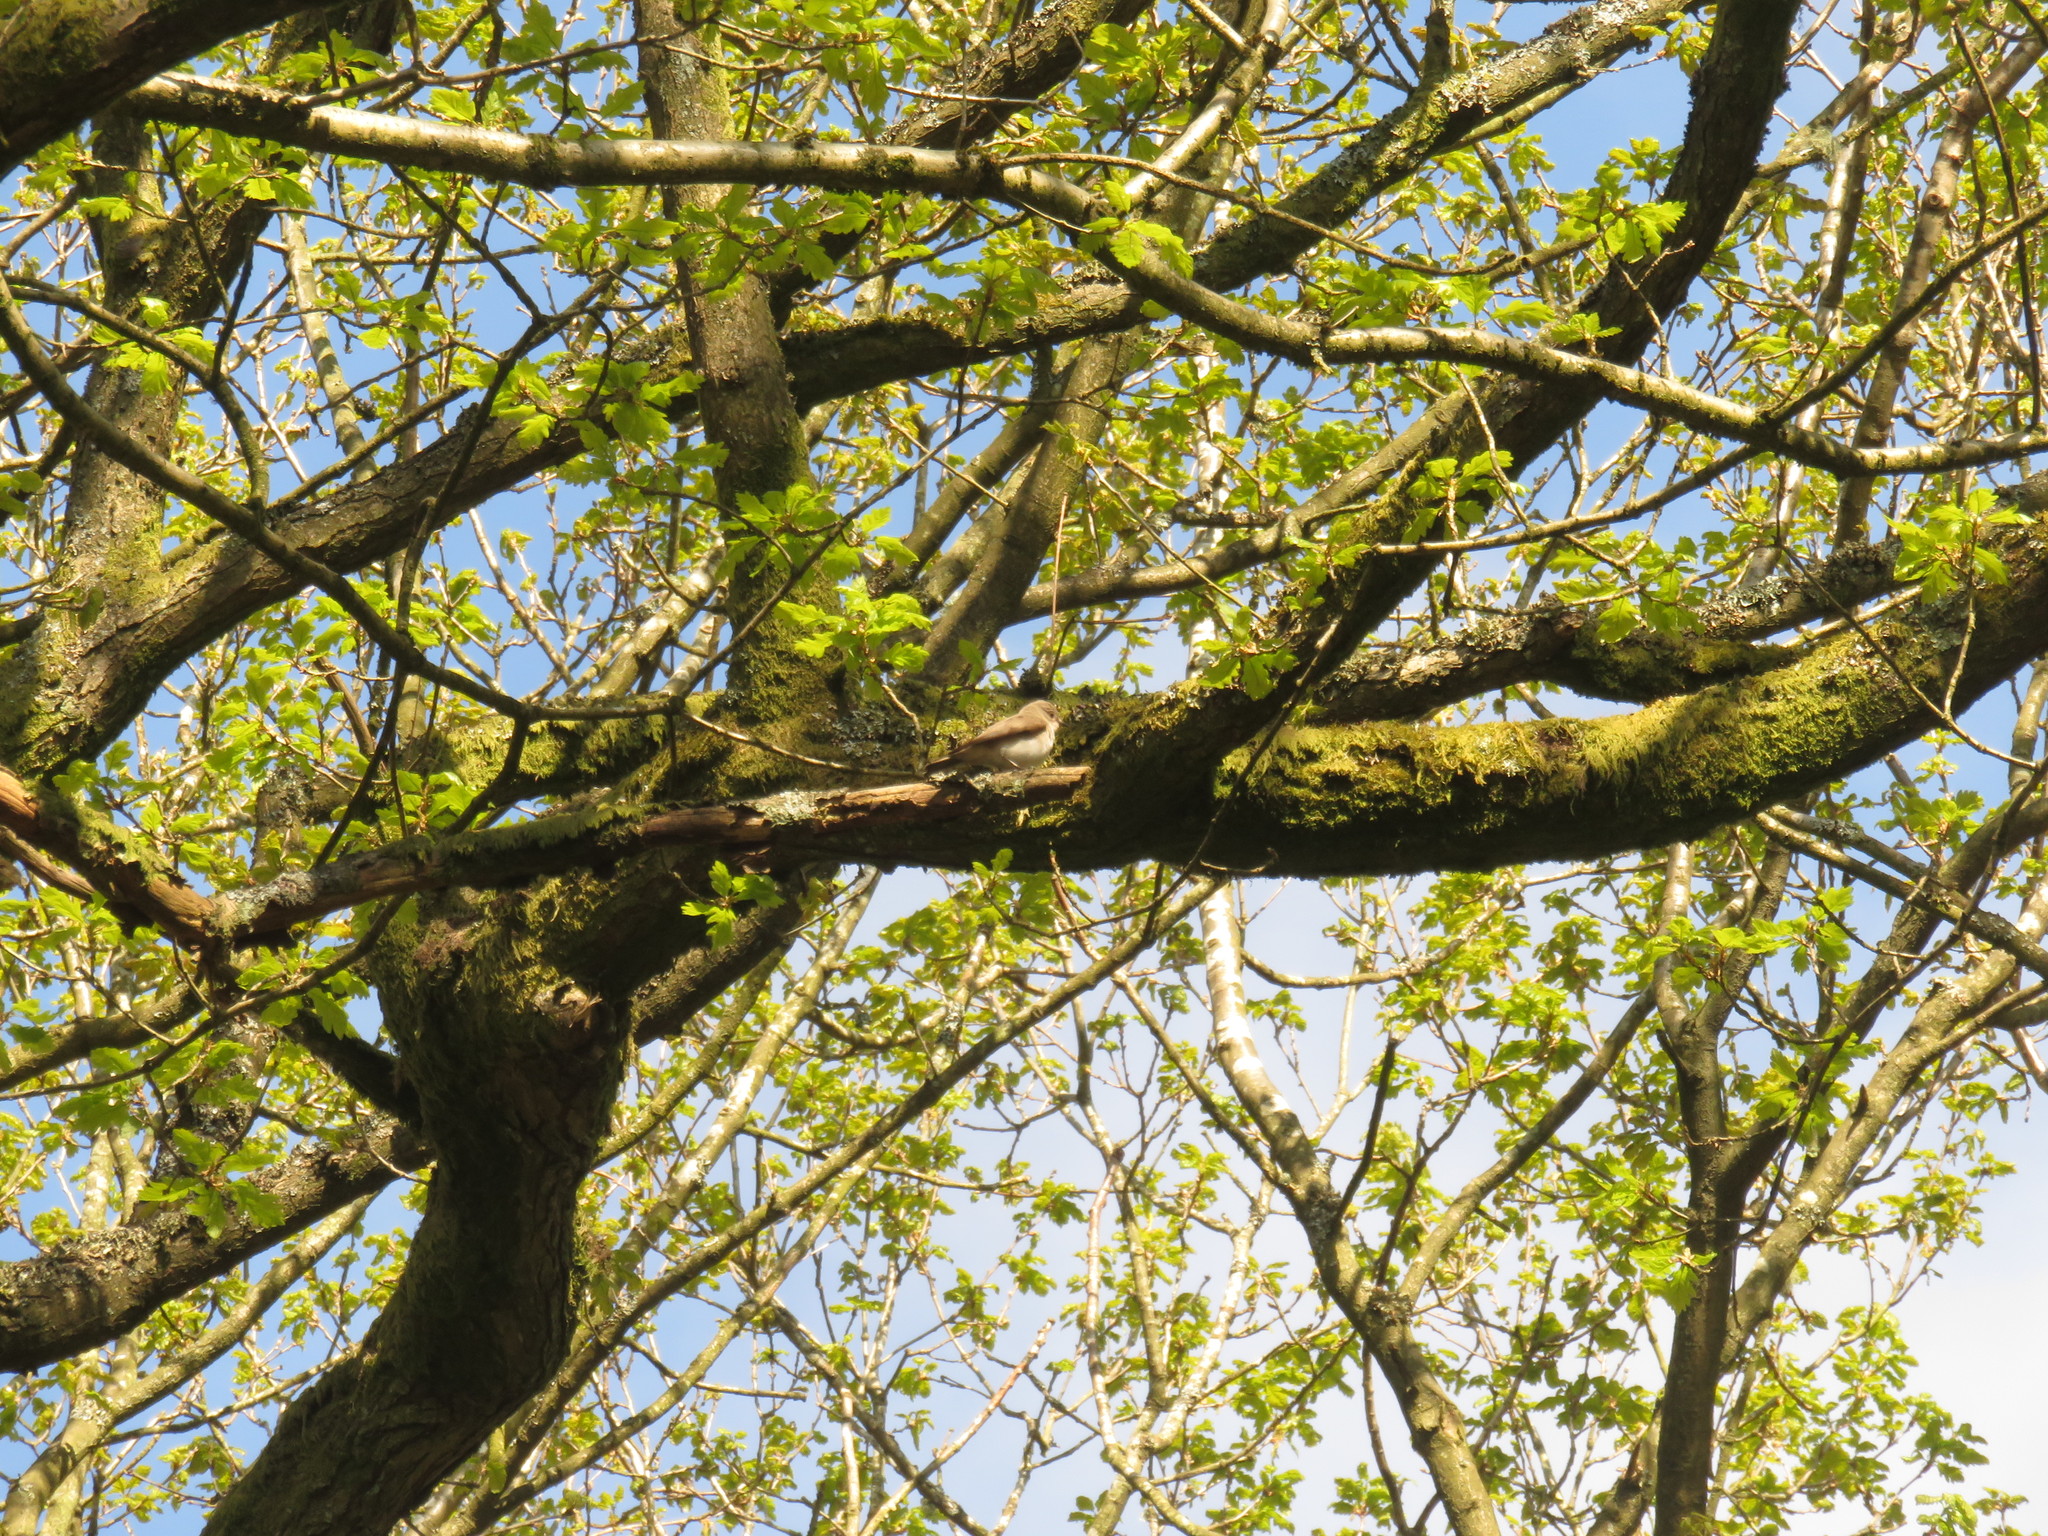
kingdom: Animalia
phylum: Chordata
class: Aves
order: Passeriformes
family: Muscicapidae
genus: Muscicapa
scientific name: Muscicapa striata
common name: Spotted flycatcher
